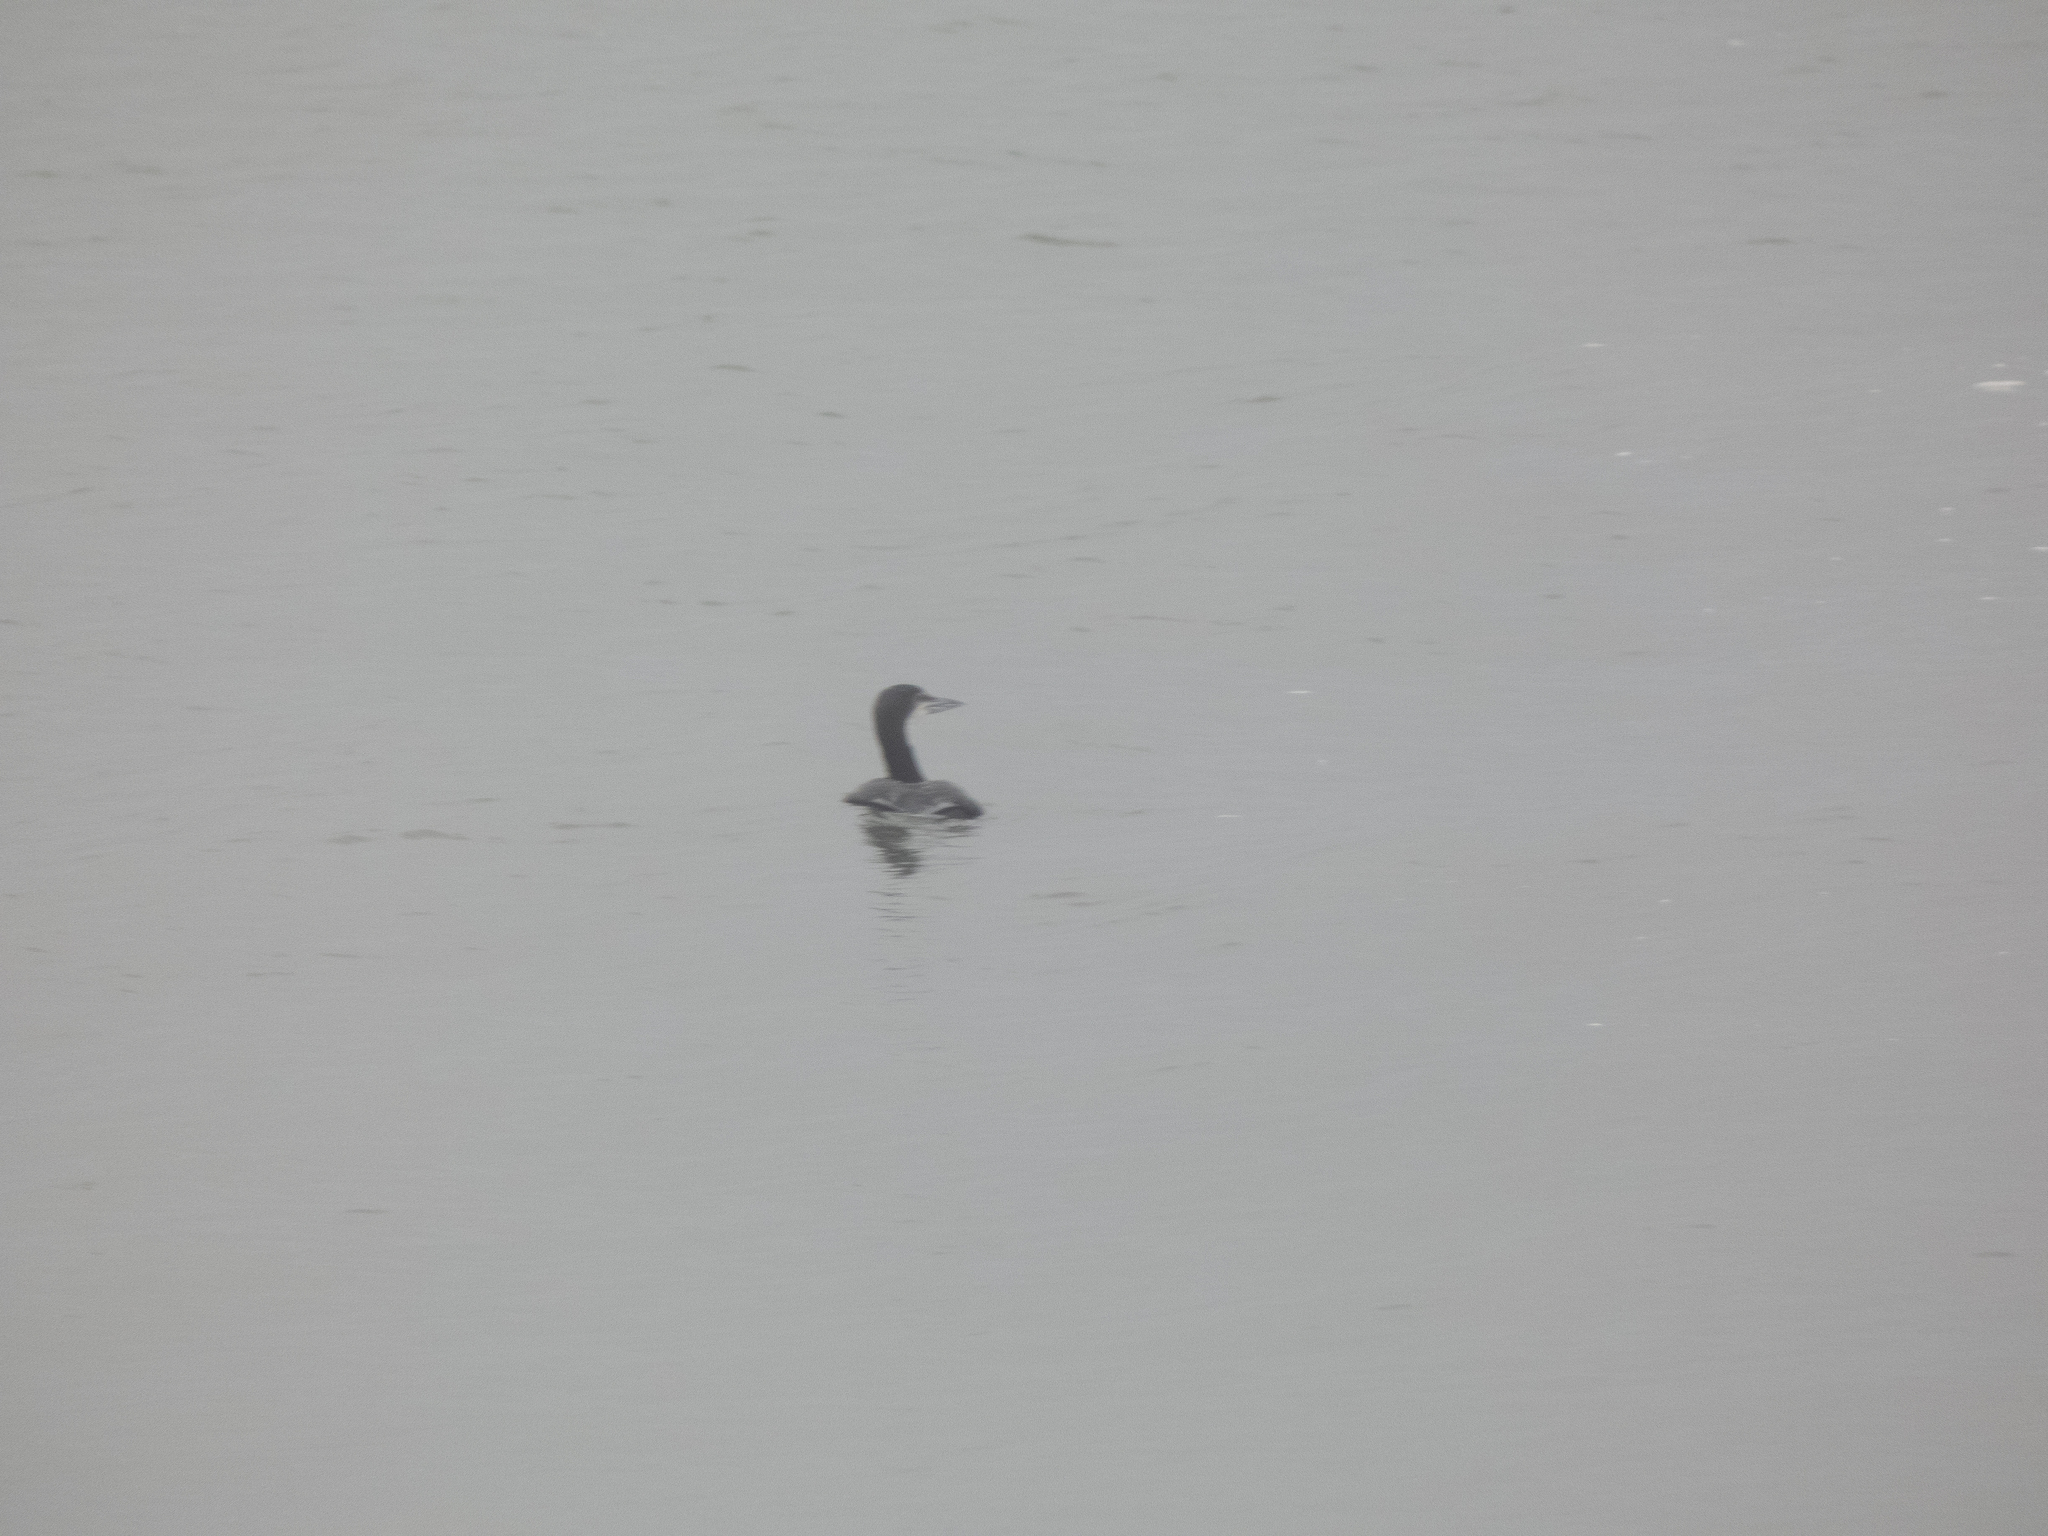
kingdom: Animalia
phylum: Chordata
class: Aves
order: Gaviiformes
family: Gaviidae
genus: Gavia
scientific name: Gavia immer
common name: Common loon
